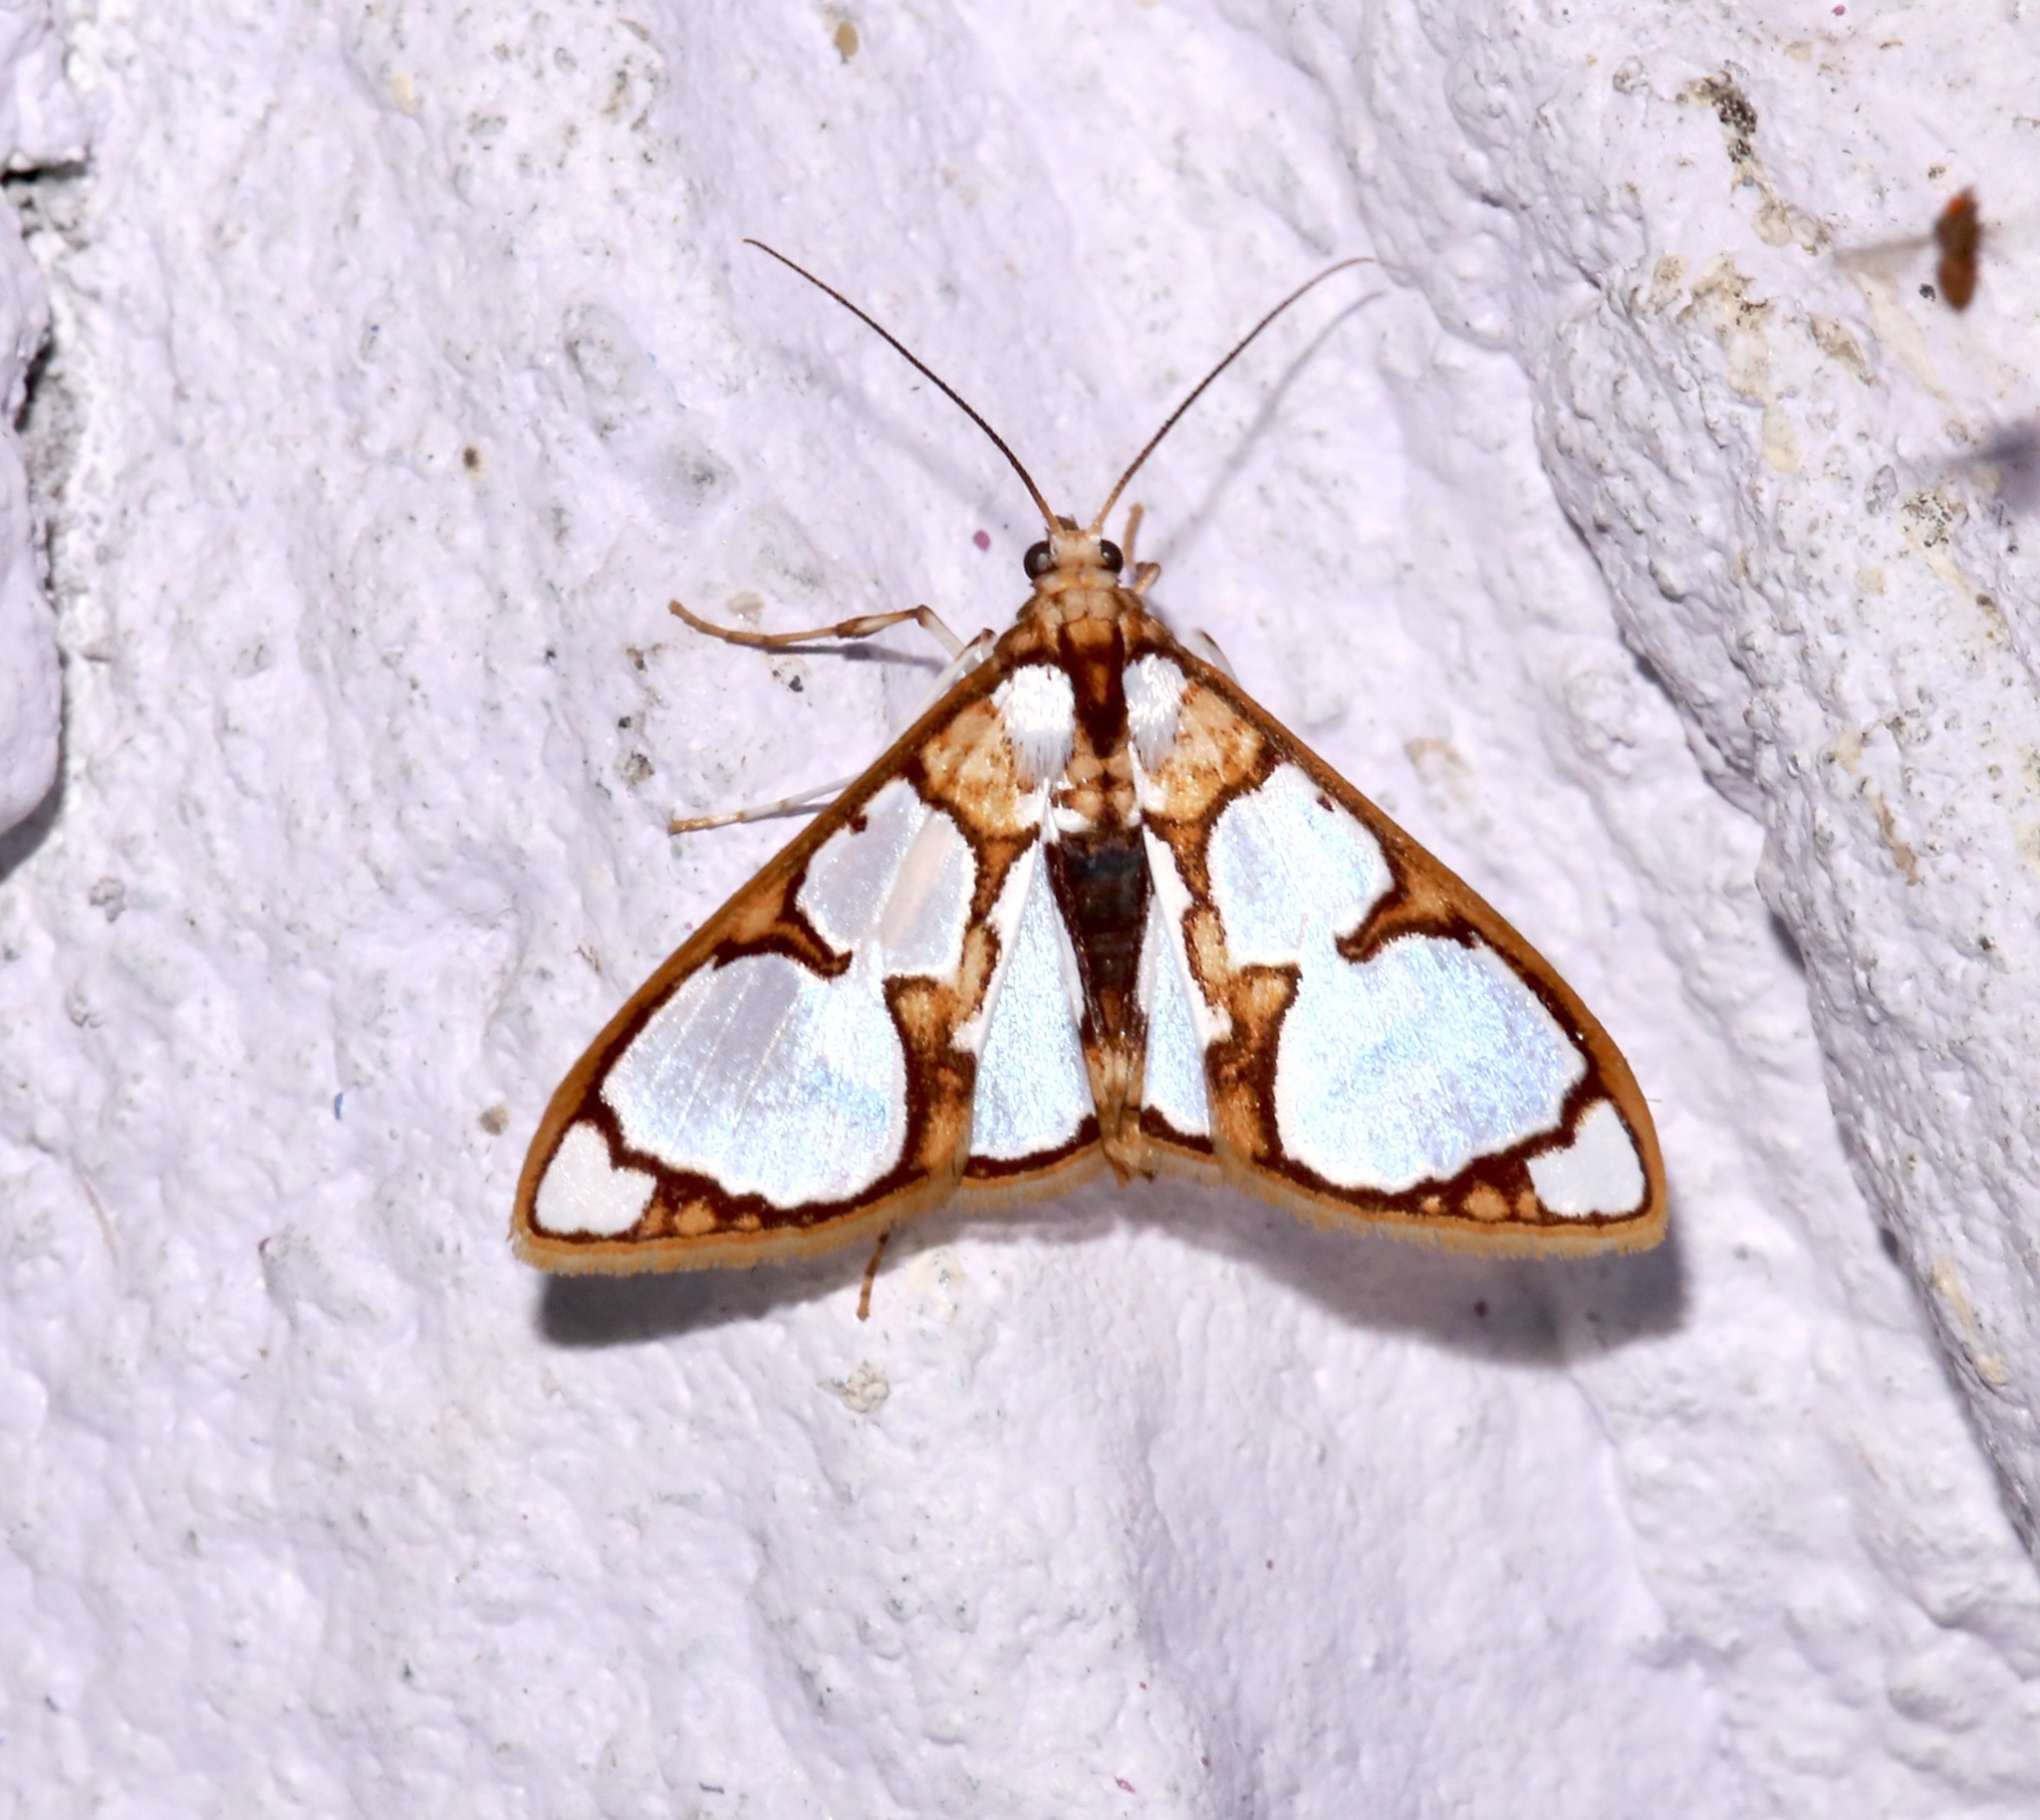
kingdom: Animalia
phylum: Arthropoda
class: Insecta
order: Lepidoptera
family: Crambidae
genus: Glyphodes
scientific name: Glyphodes grandisalis
